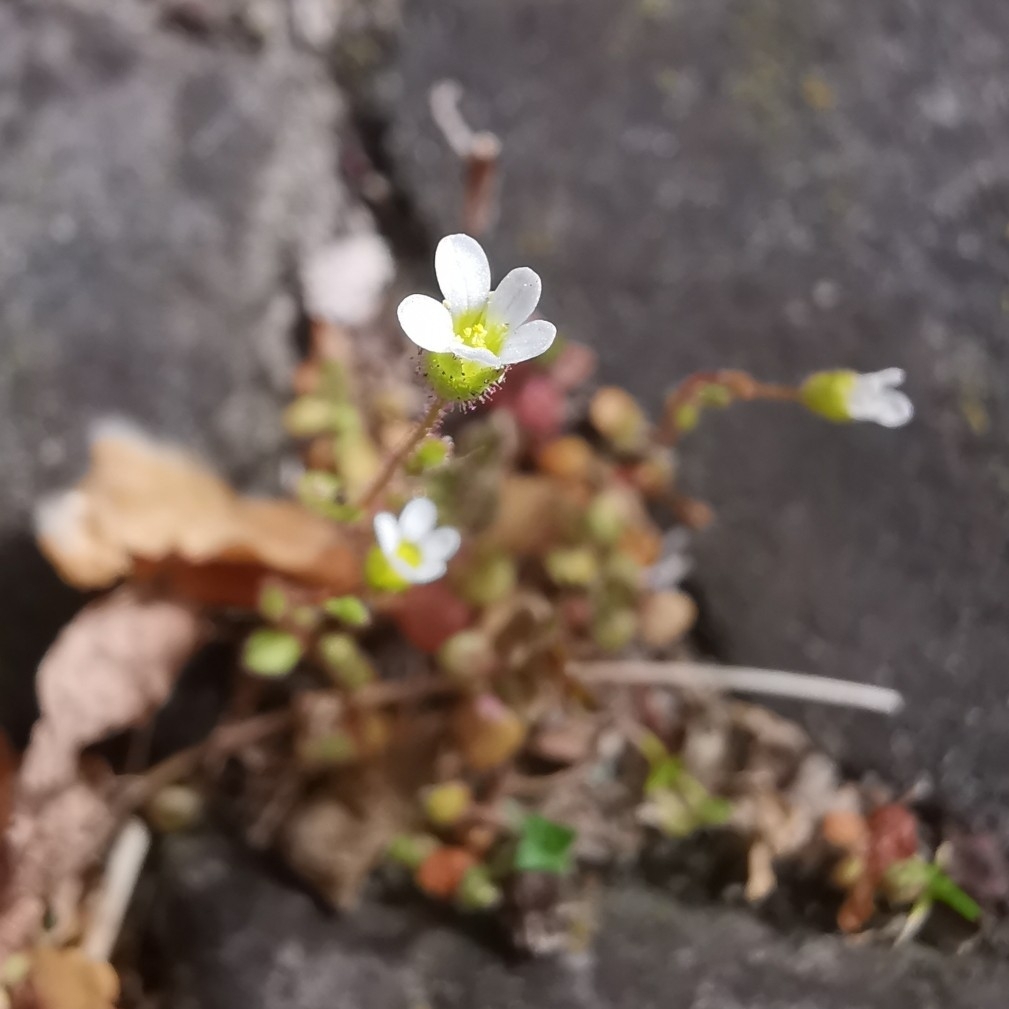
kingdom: Plantae
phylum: Tracheophyta
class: Magnoliopsida
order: Saxifragales
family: Saxifragaceae
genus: Saxifraga
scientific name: Saxifraga tridactylites
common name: Rue-leaved saxifrage
